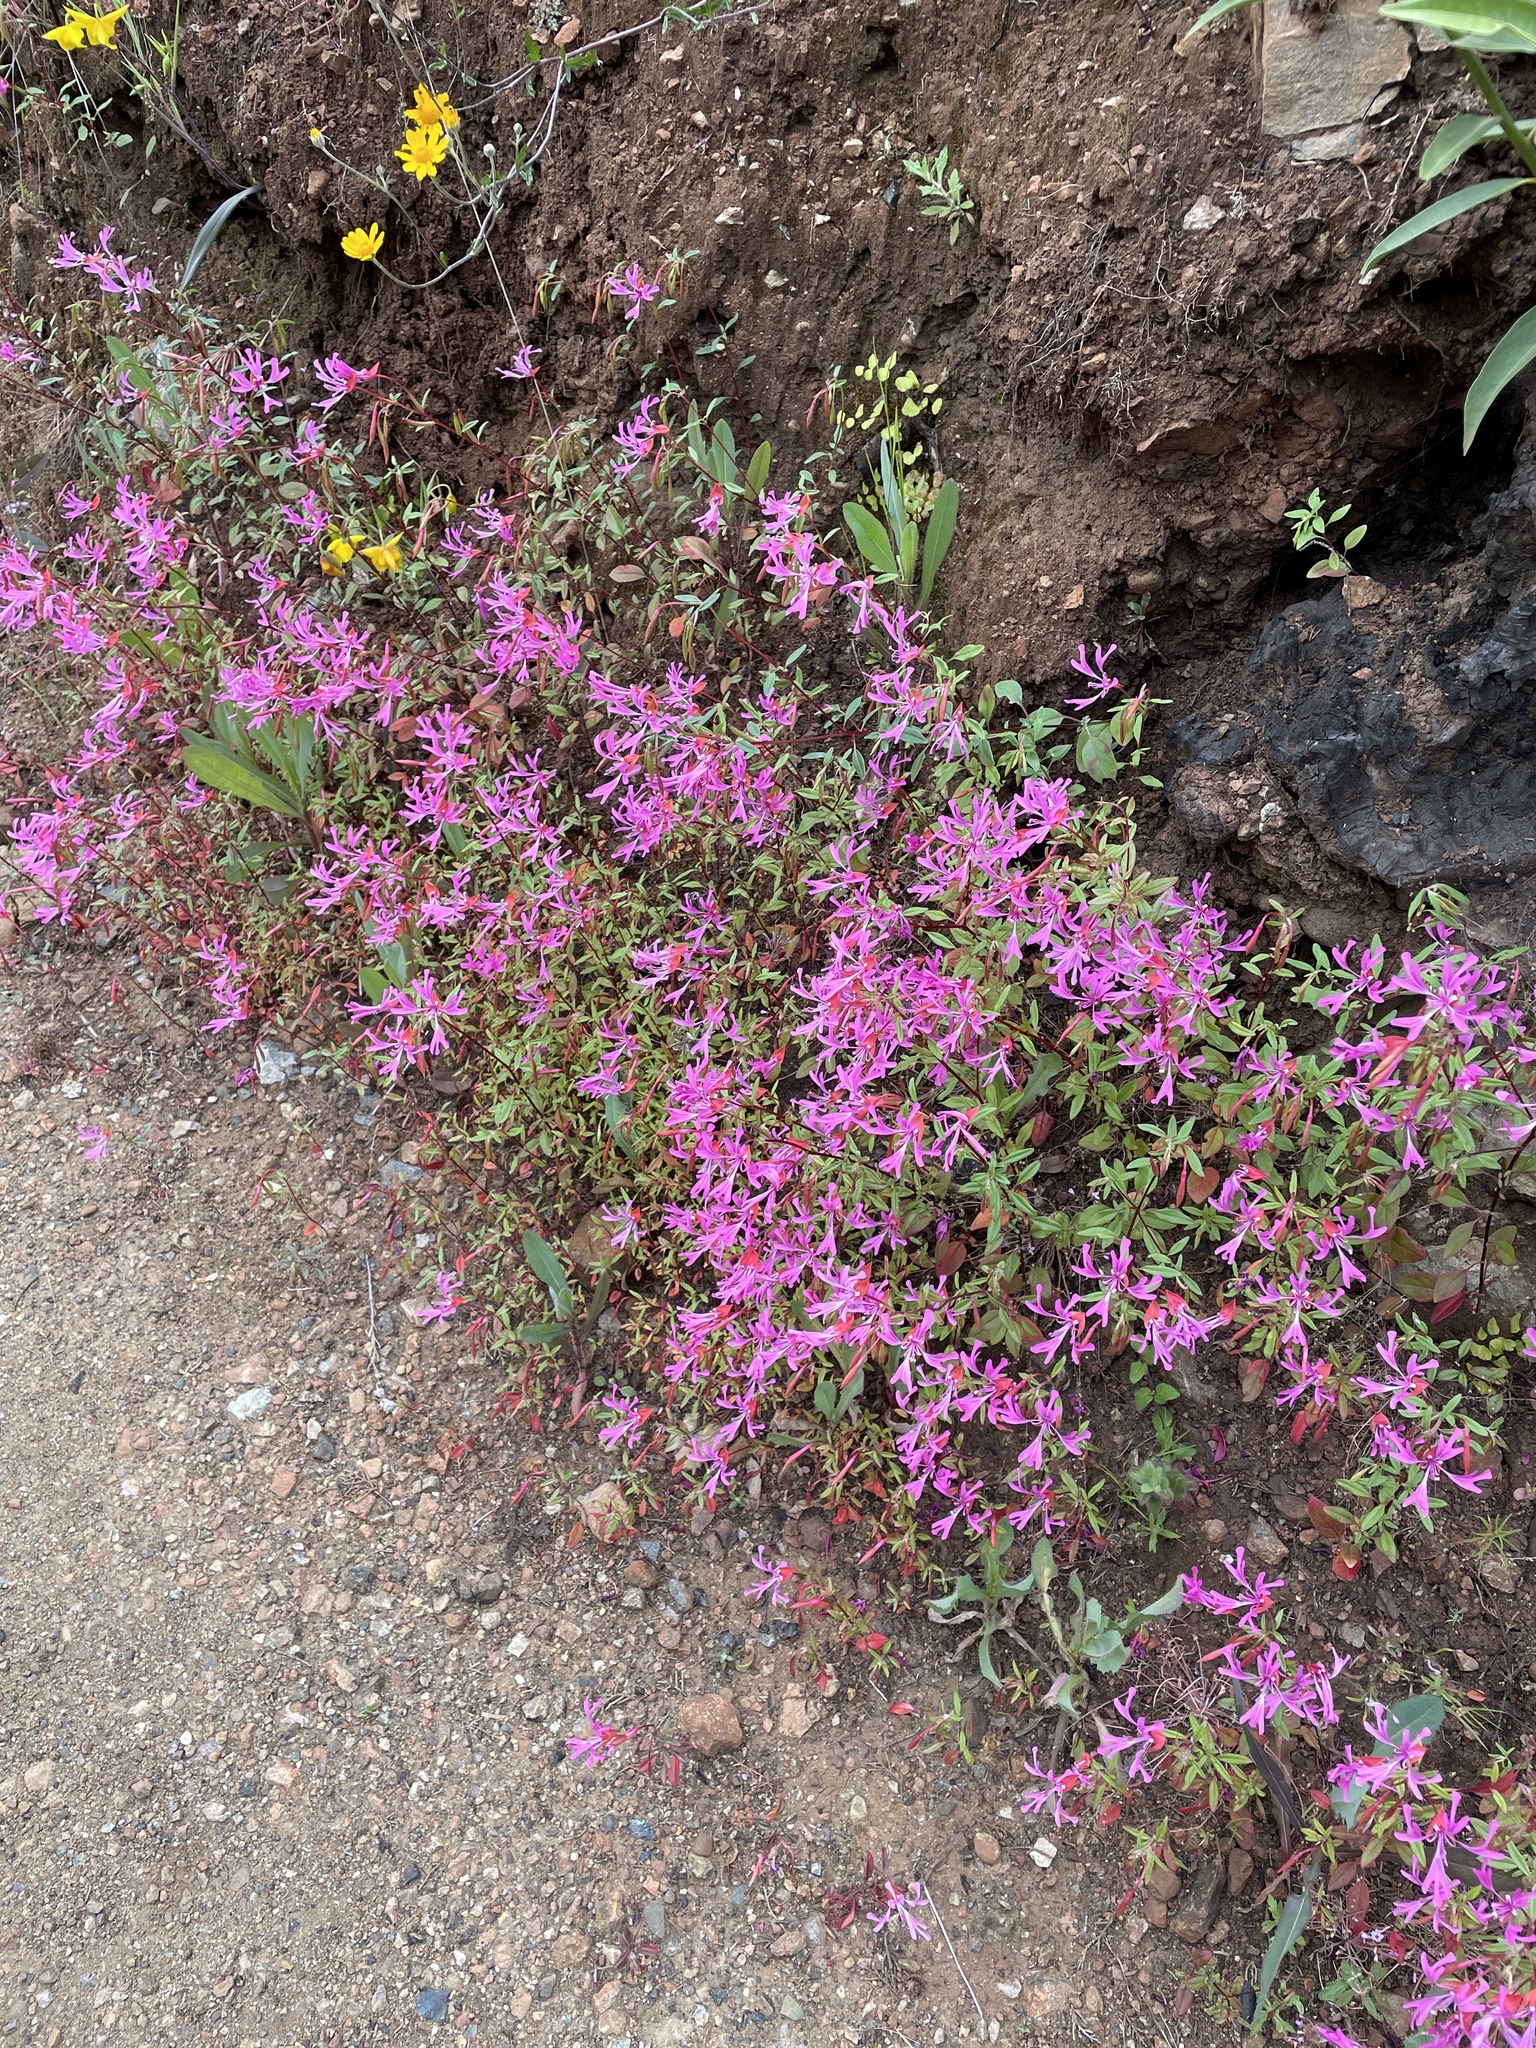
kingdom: Plantae
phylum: Tracheophyta
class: Magnoliopsida
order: Myrtales
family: Onagraceae
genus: Clarkia
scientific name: Clarkia concinna
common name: Red-ribbons
